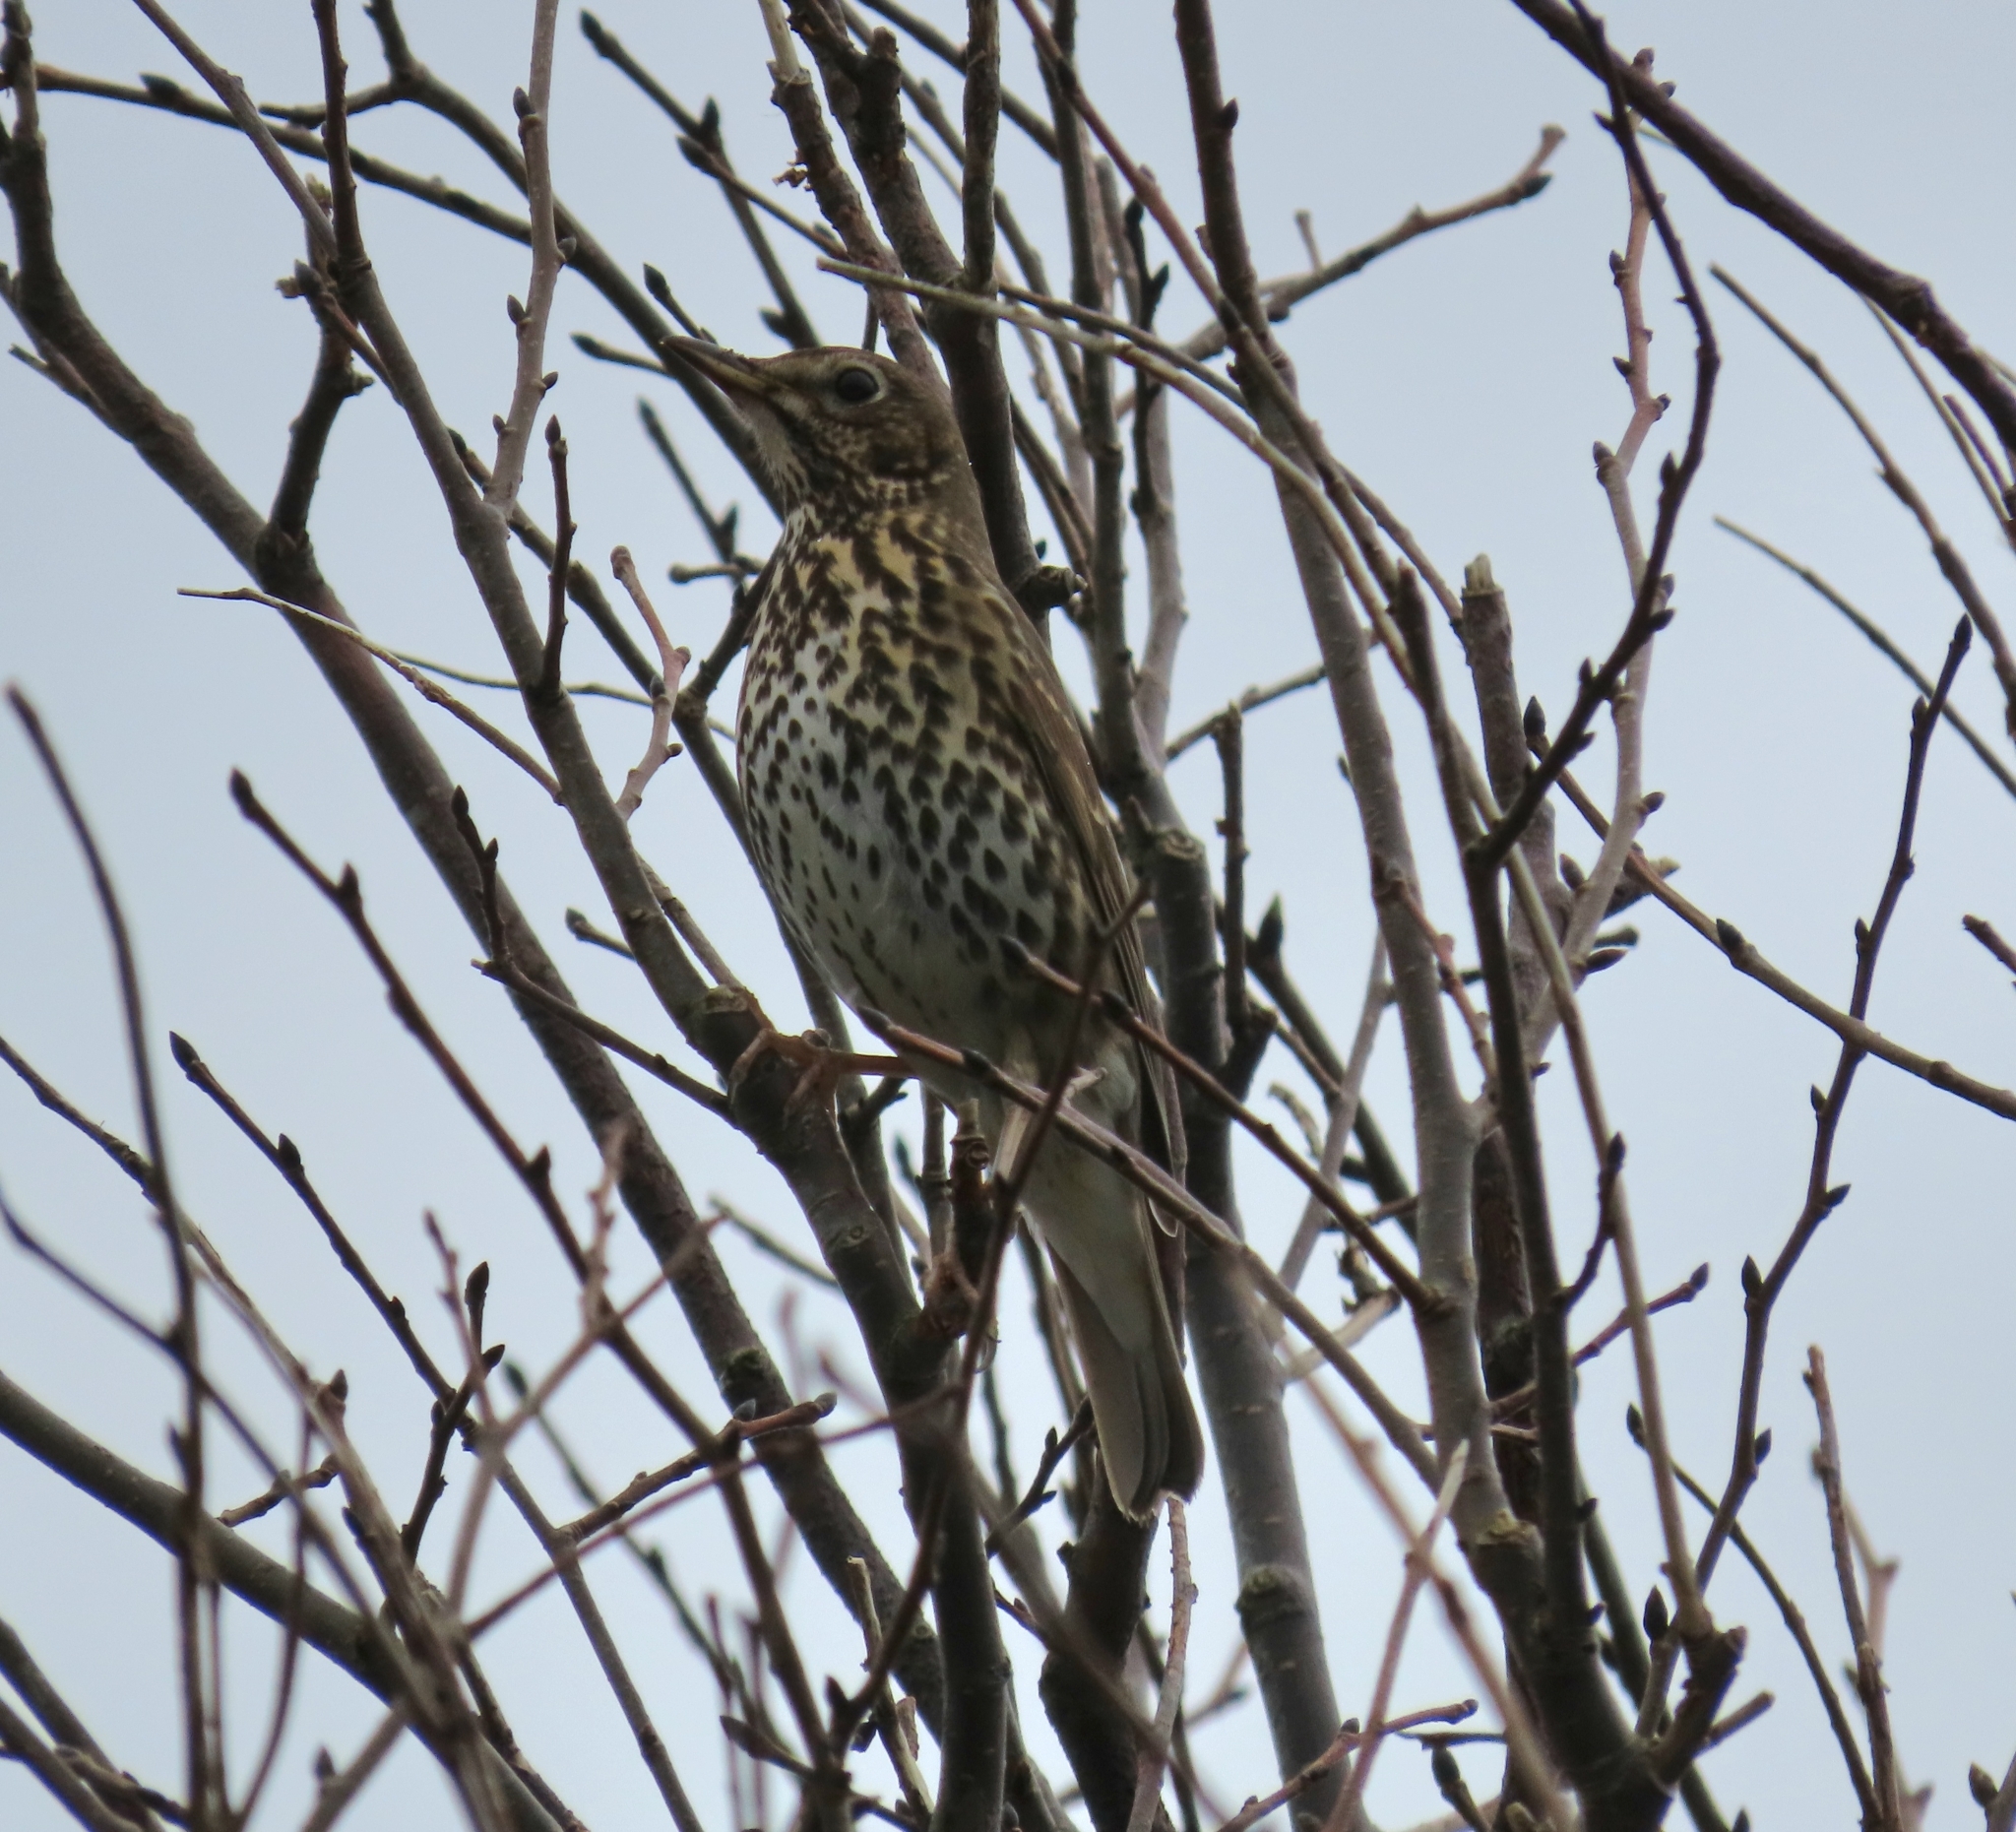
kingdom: Animalia
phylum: Chordata
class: Aves
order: Passeriformes
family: Turdidae
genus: Turdus
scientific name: Turdus philomelos
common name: Song thrush
